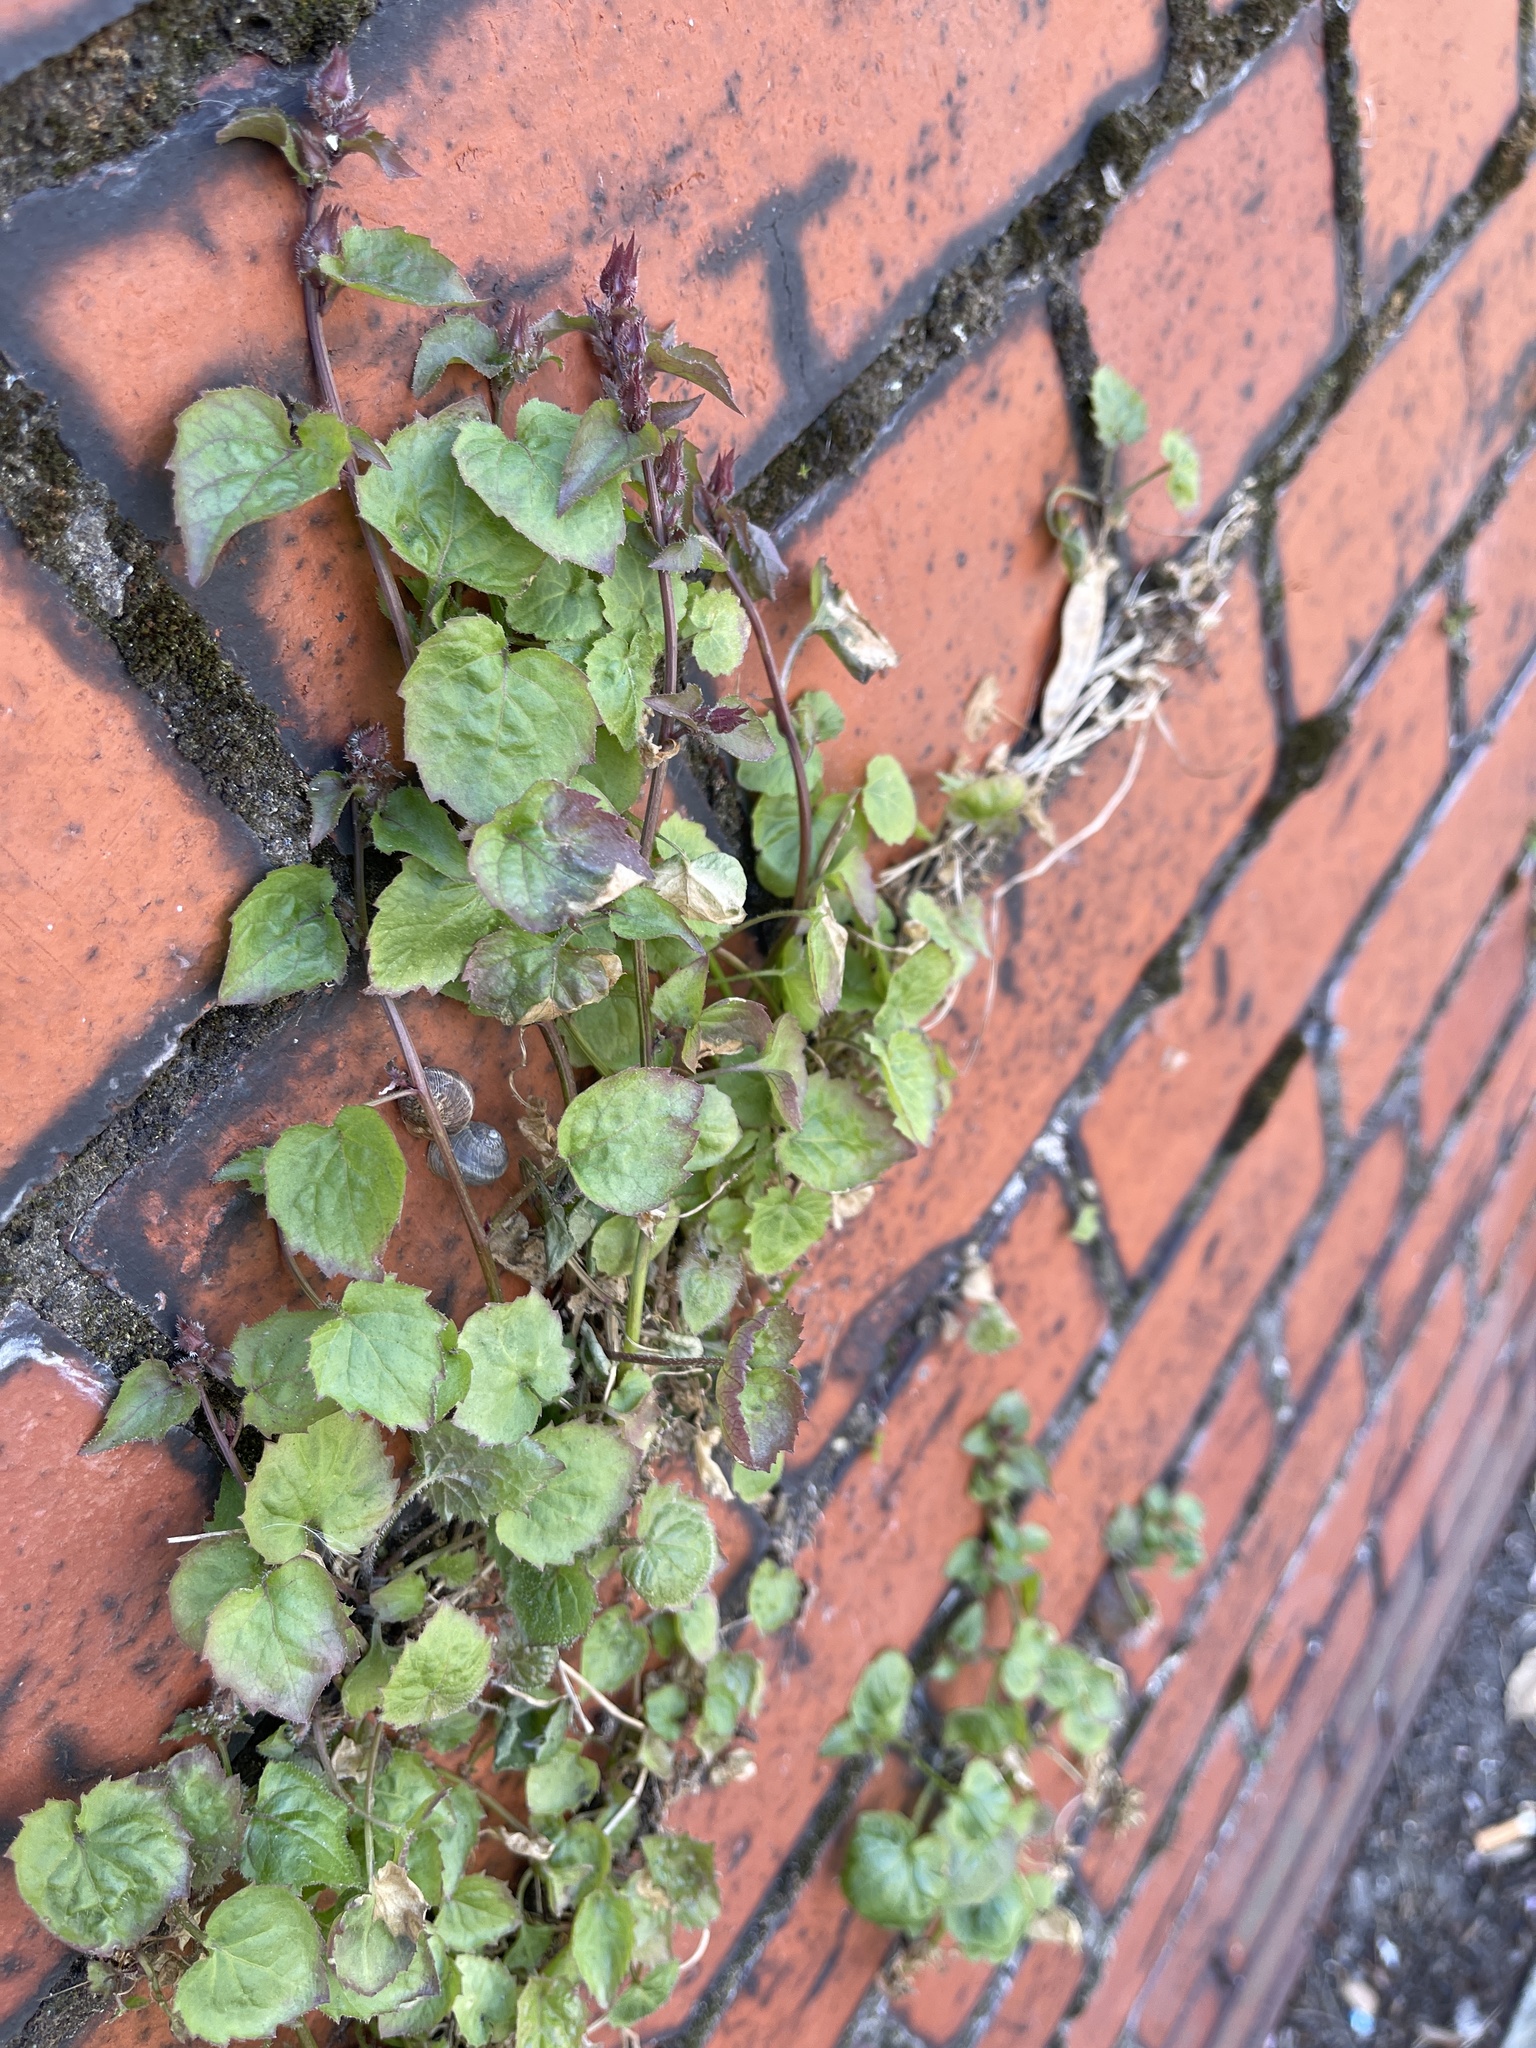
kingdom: Plantae
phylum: Tracheophyta
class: Magnoliopsida
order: Asterales
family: Campanulaceae
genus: Campanula
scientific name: Campanula poscharskyana
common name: Trailing bellflower
